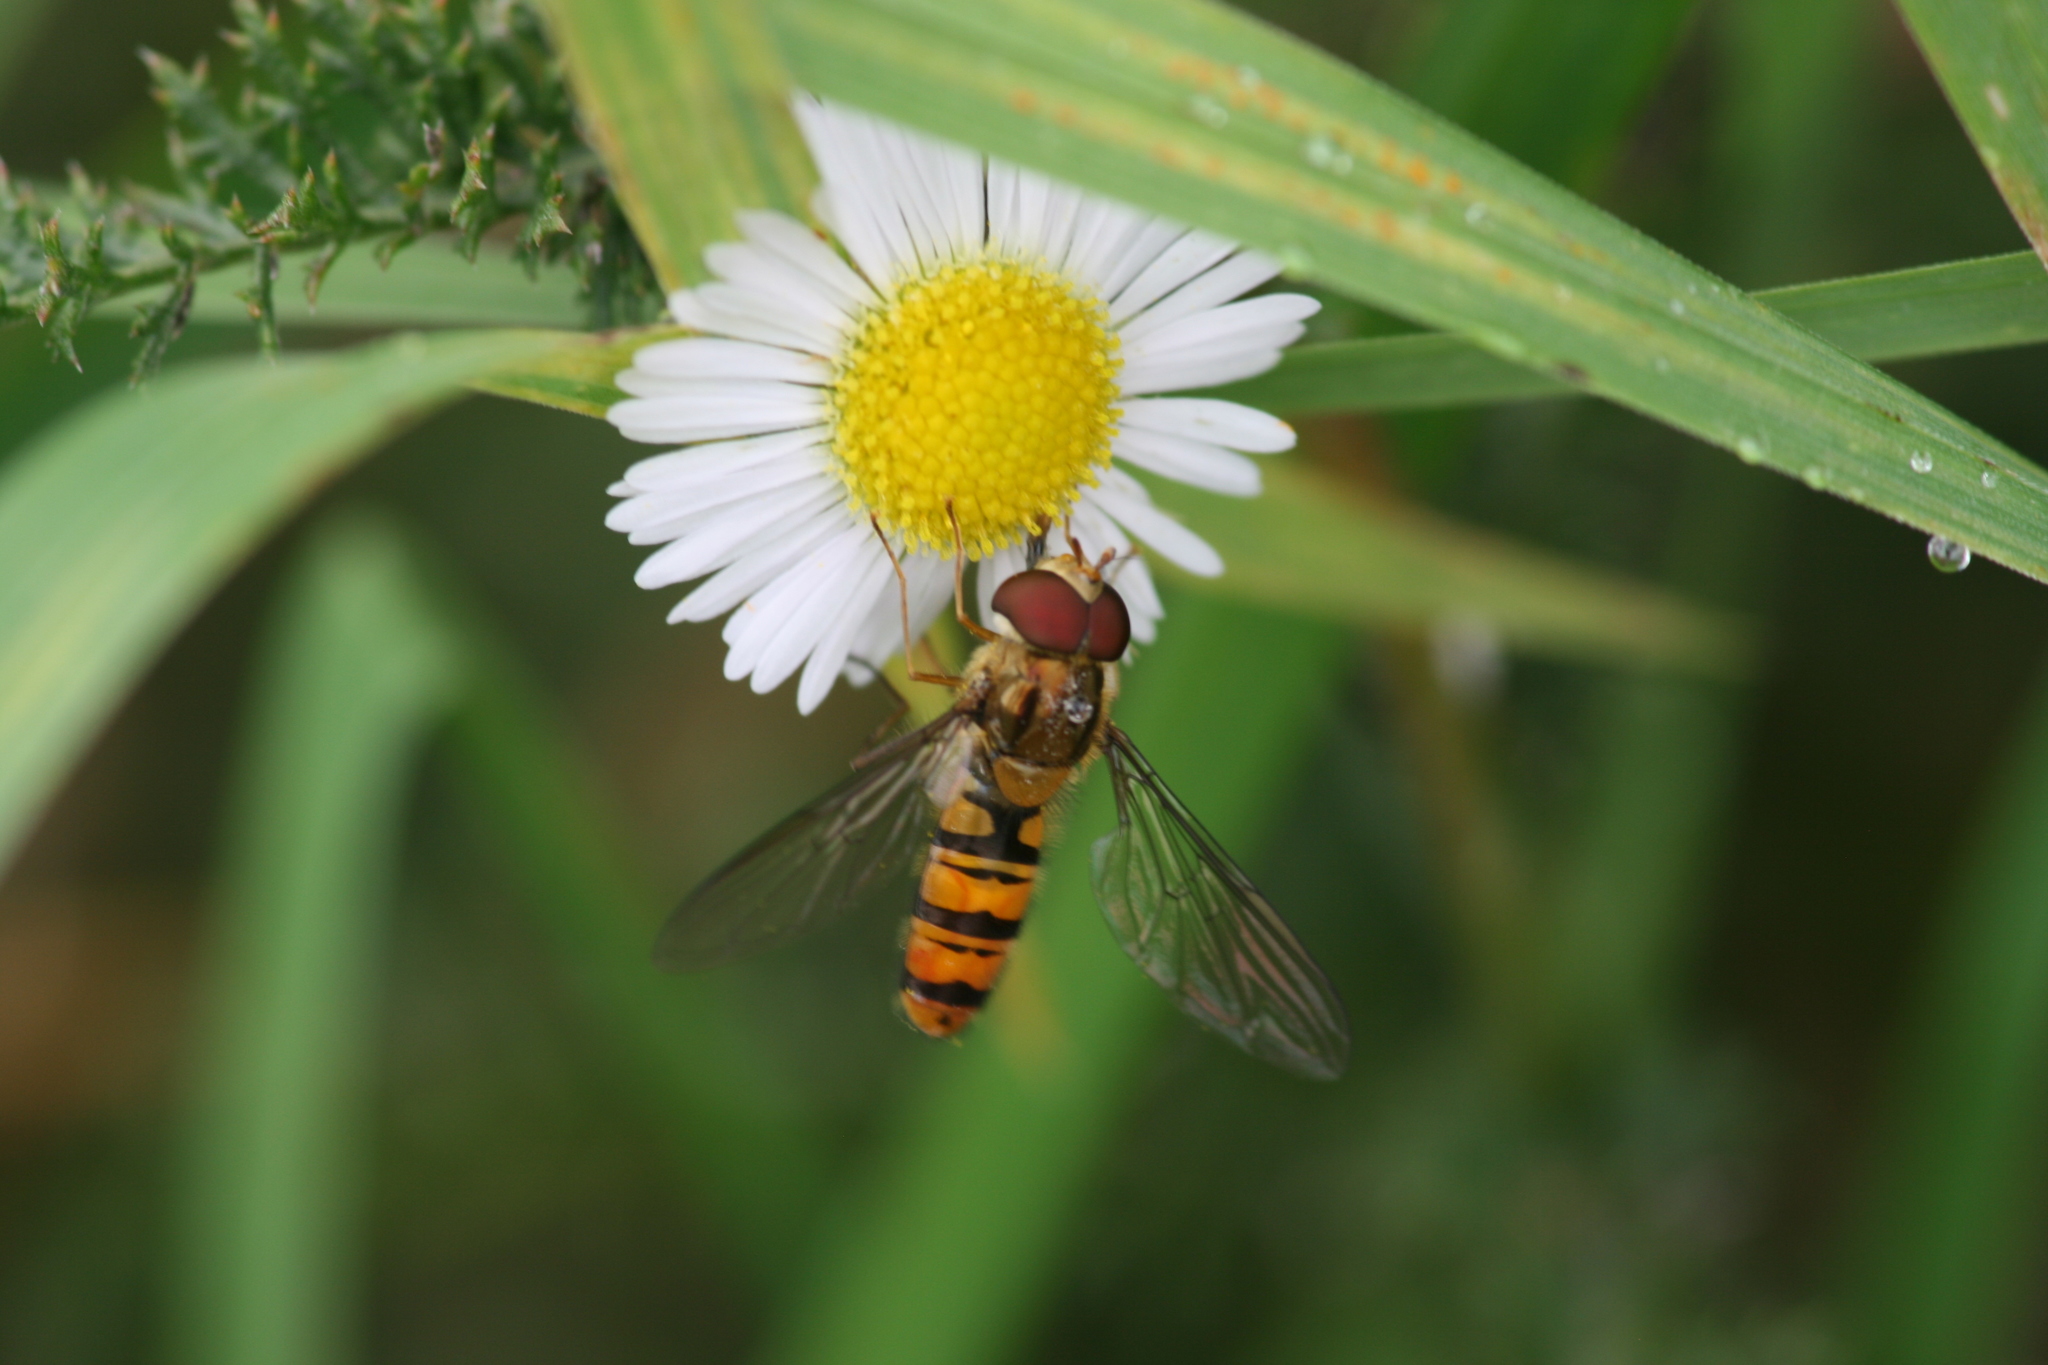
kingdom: Animalia
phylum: Arthropoda
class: Insecta
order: Diptera
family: Syrphidae
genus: Episyrphus
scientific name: Episyrphus balteatus
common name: Marmalade hoverfly
